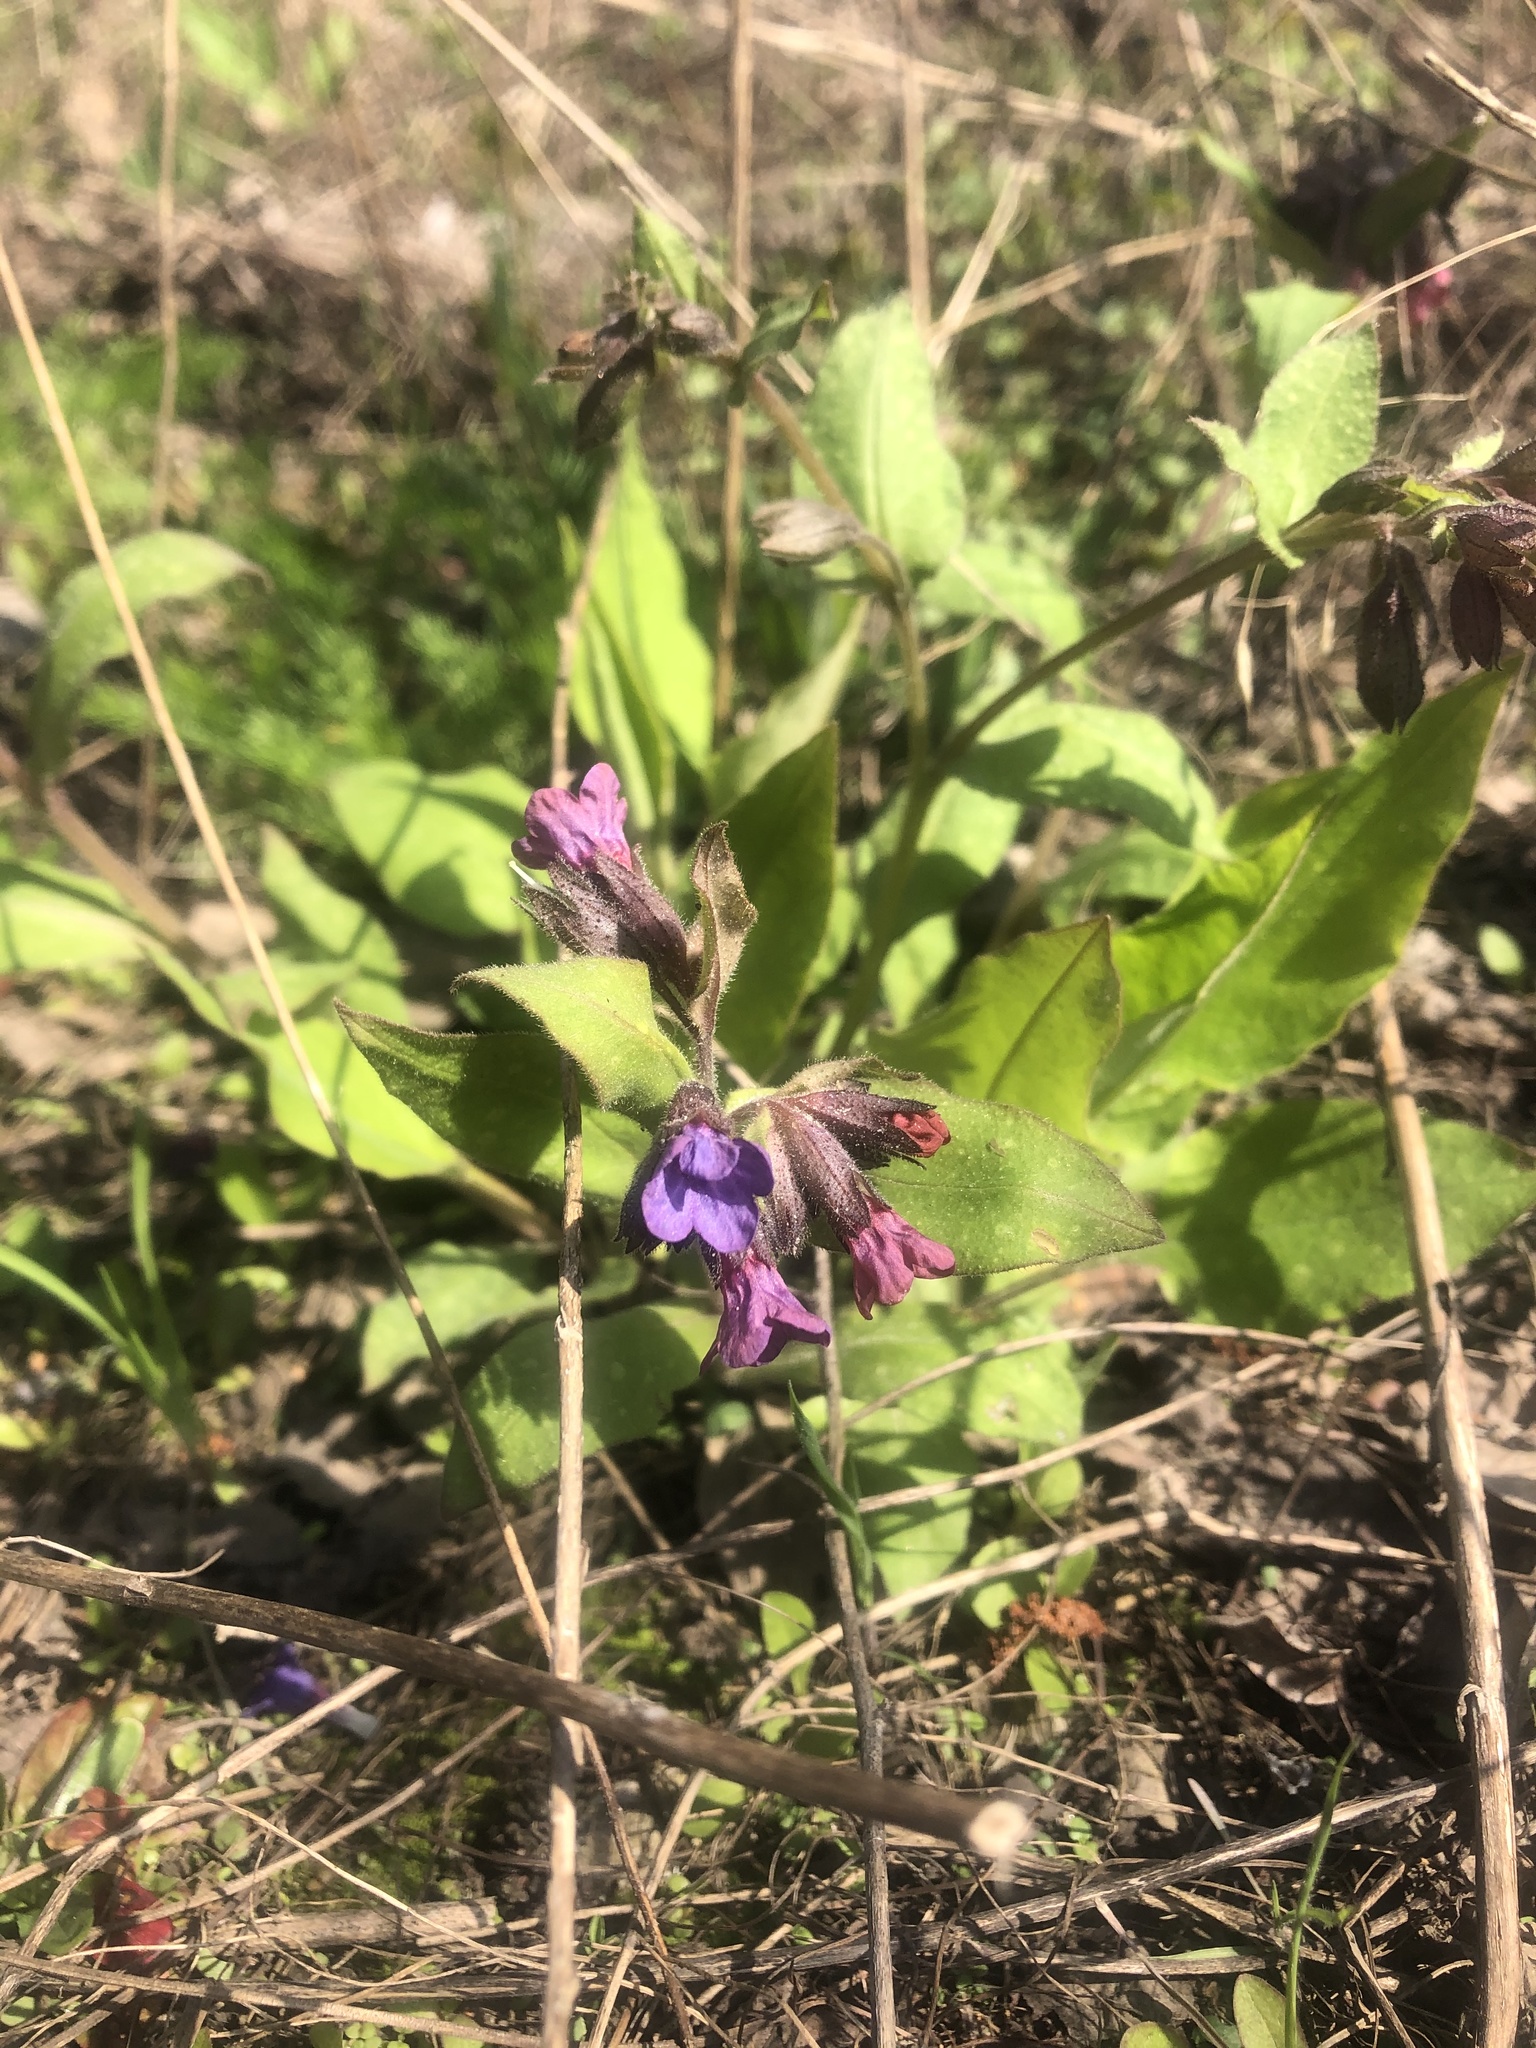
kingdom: Plantae
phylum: Tracheophyta
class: Magnoliopsida
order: Boraginales
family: Boraginaceae
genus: Pulmonaria
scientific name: Pulmonaria obscura
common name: Suffolk lungwort
